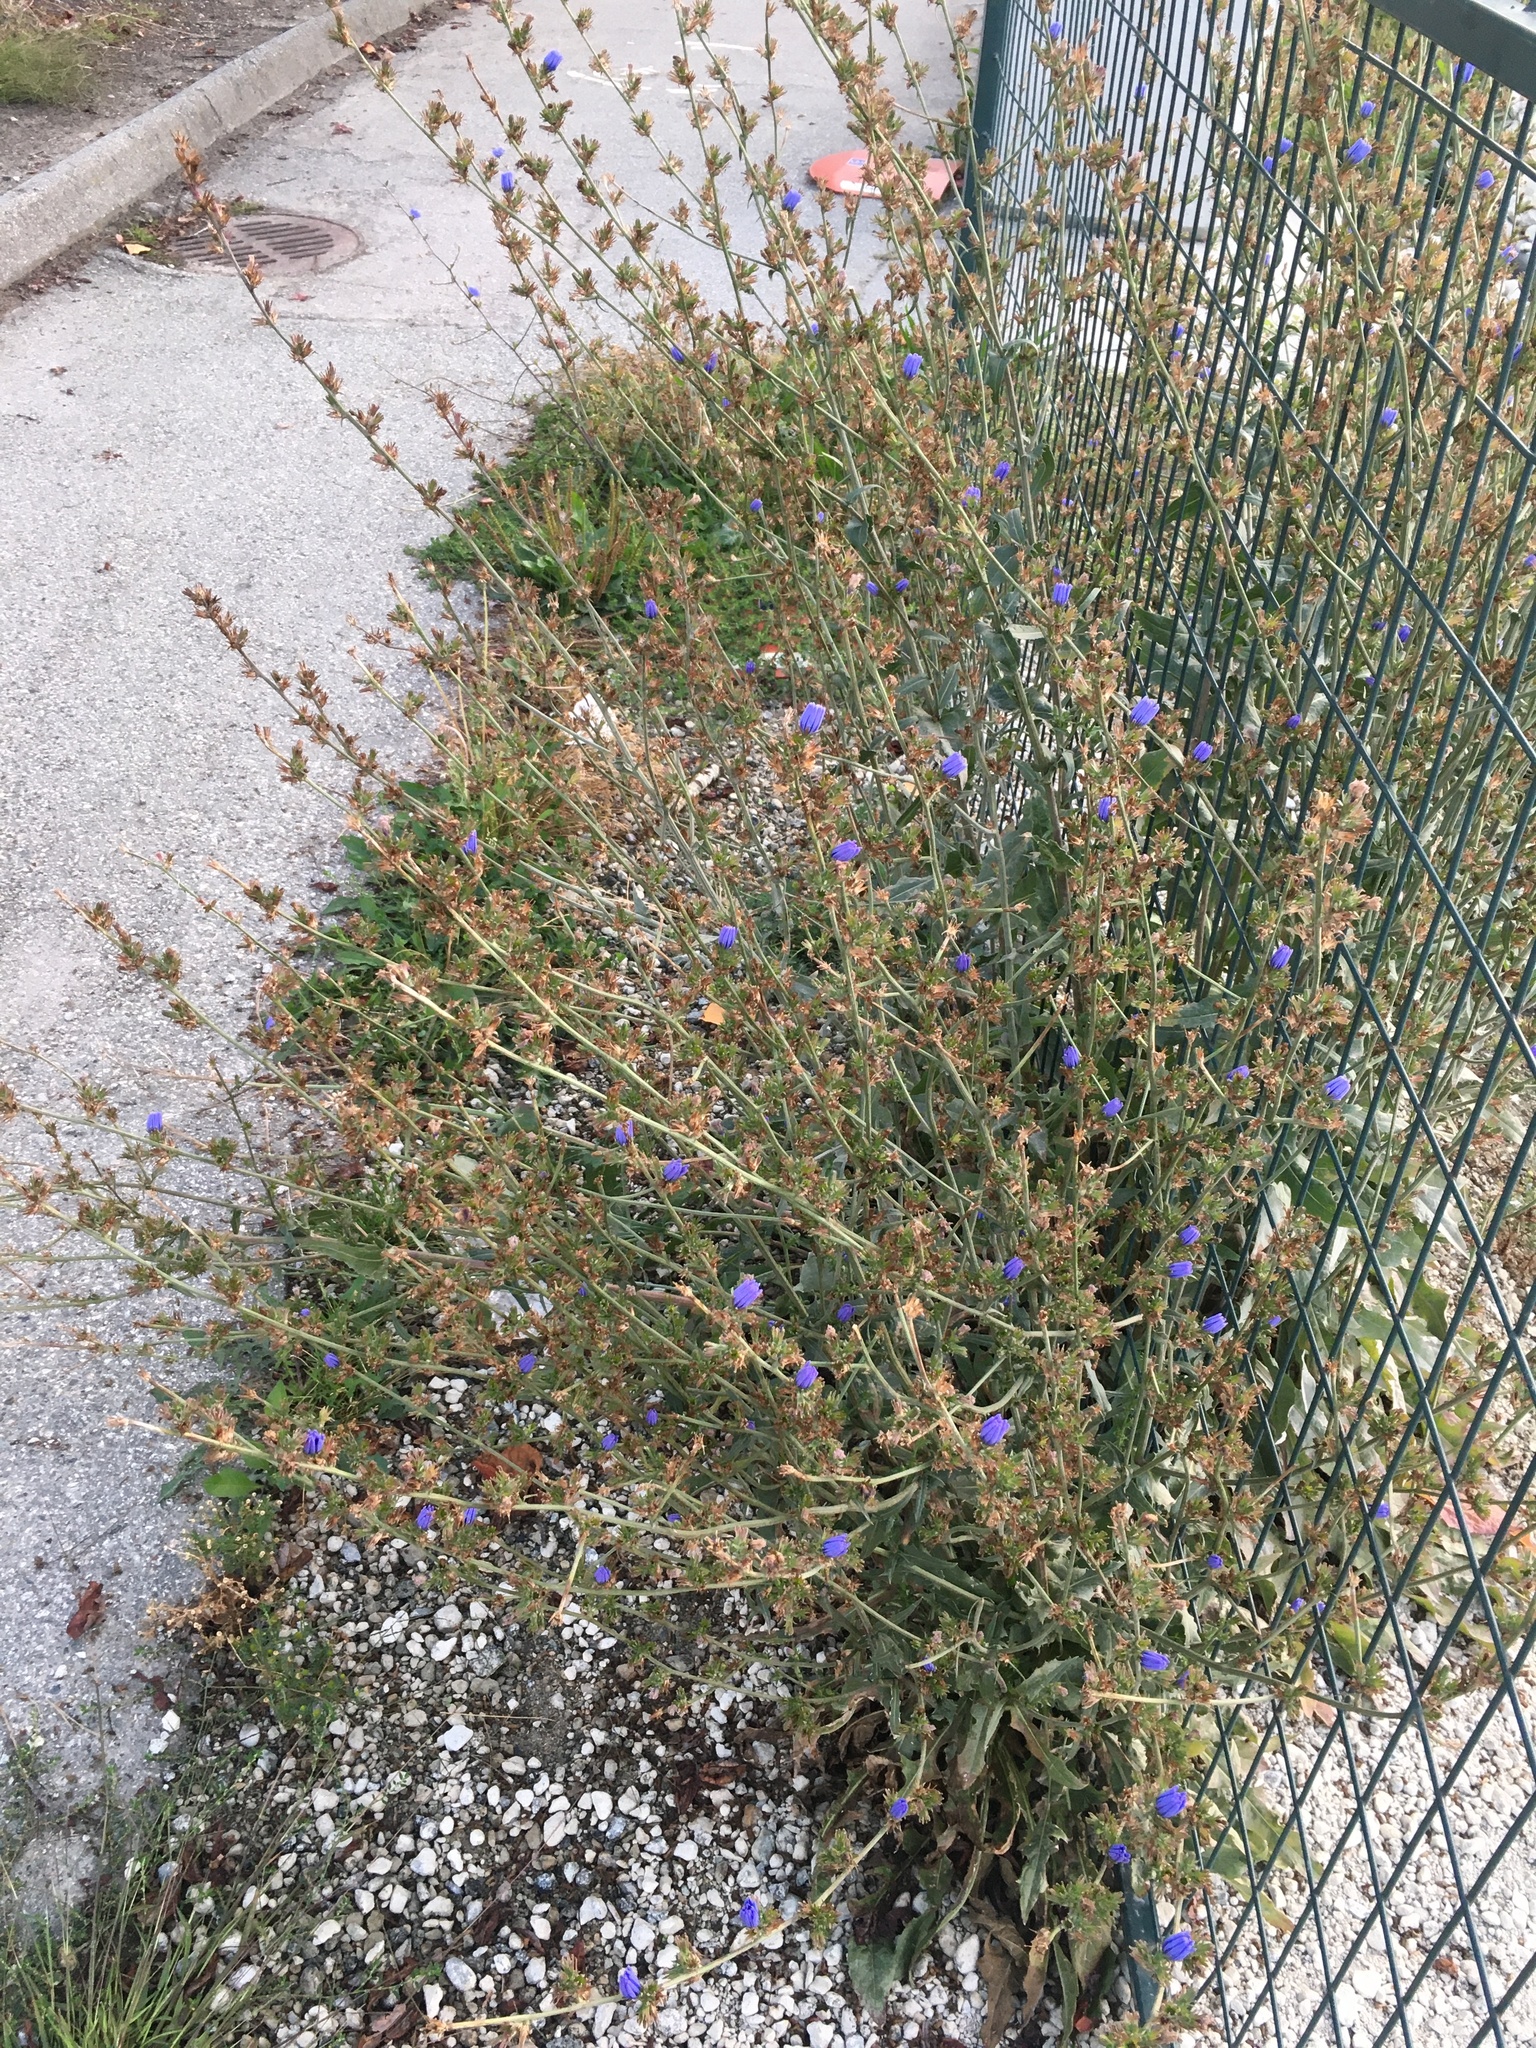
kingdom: Plantae
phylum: Tracheophyta
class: Magnoliopsida
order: Asterales
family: Asteraceae
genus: Cichorium
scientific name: Cichorium intybus
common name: Chicory
